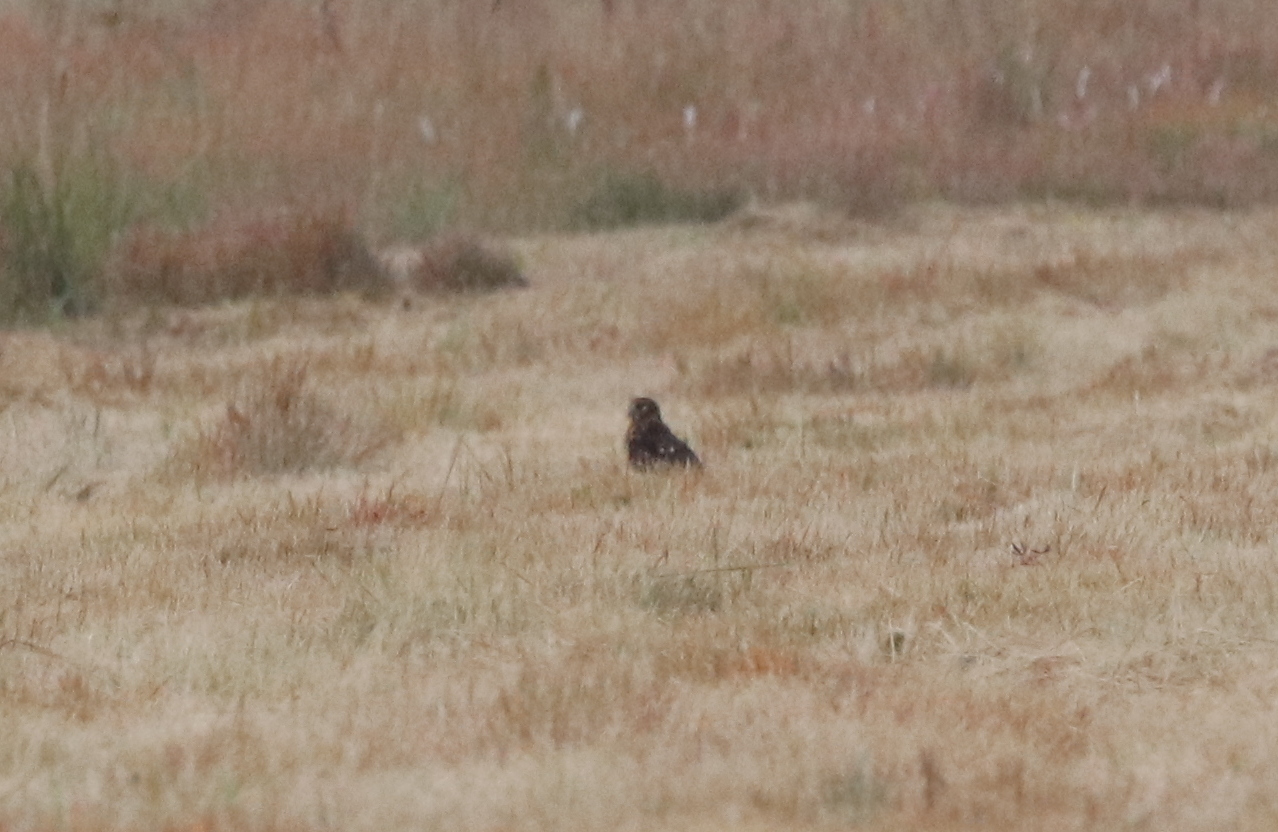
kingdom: Animalia
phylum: Chordata
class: Aves
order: Accipitriformes
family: Accipitridae
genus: Circus
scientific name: Circus cyaneus
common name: Hen harrier
